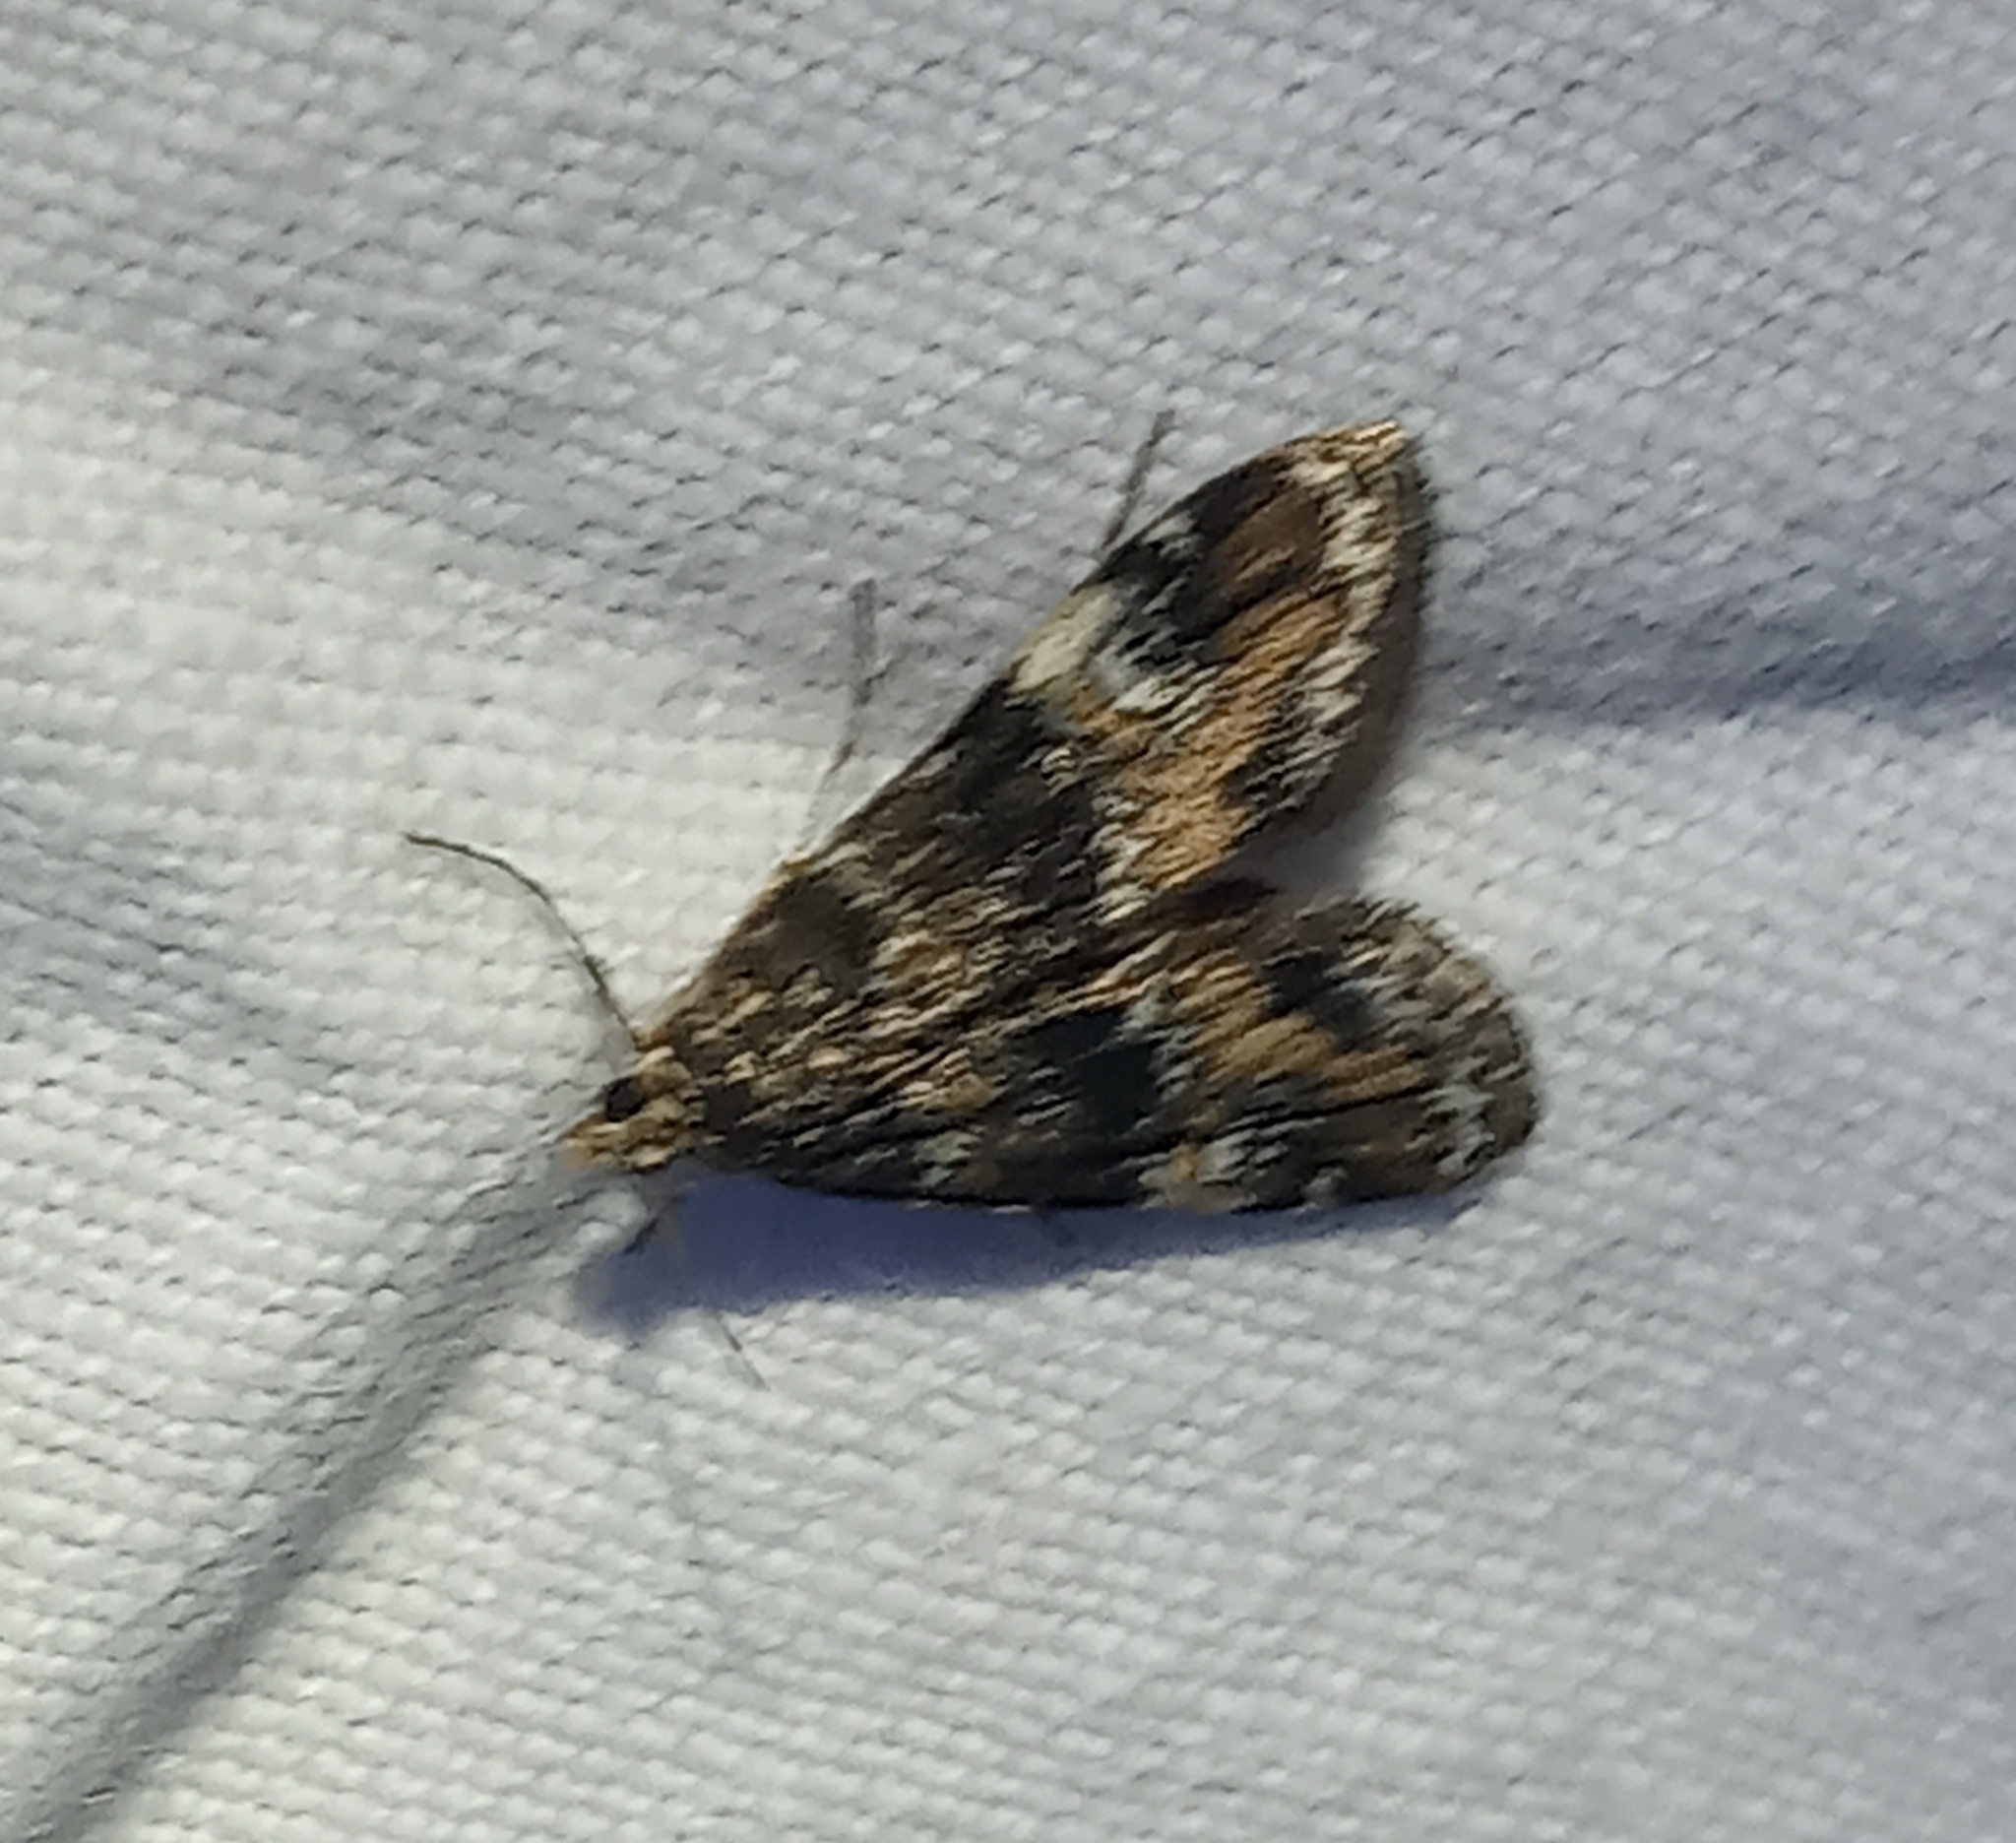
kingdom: Animalia
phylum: Arthropoda
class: Insecta
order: Lepidoptera
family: Crambidae
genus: Elophila
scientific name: Elophila obliteralis
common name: Waterlily leafcutter moth
